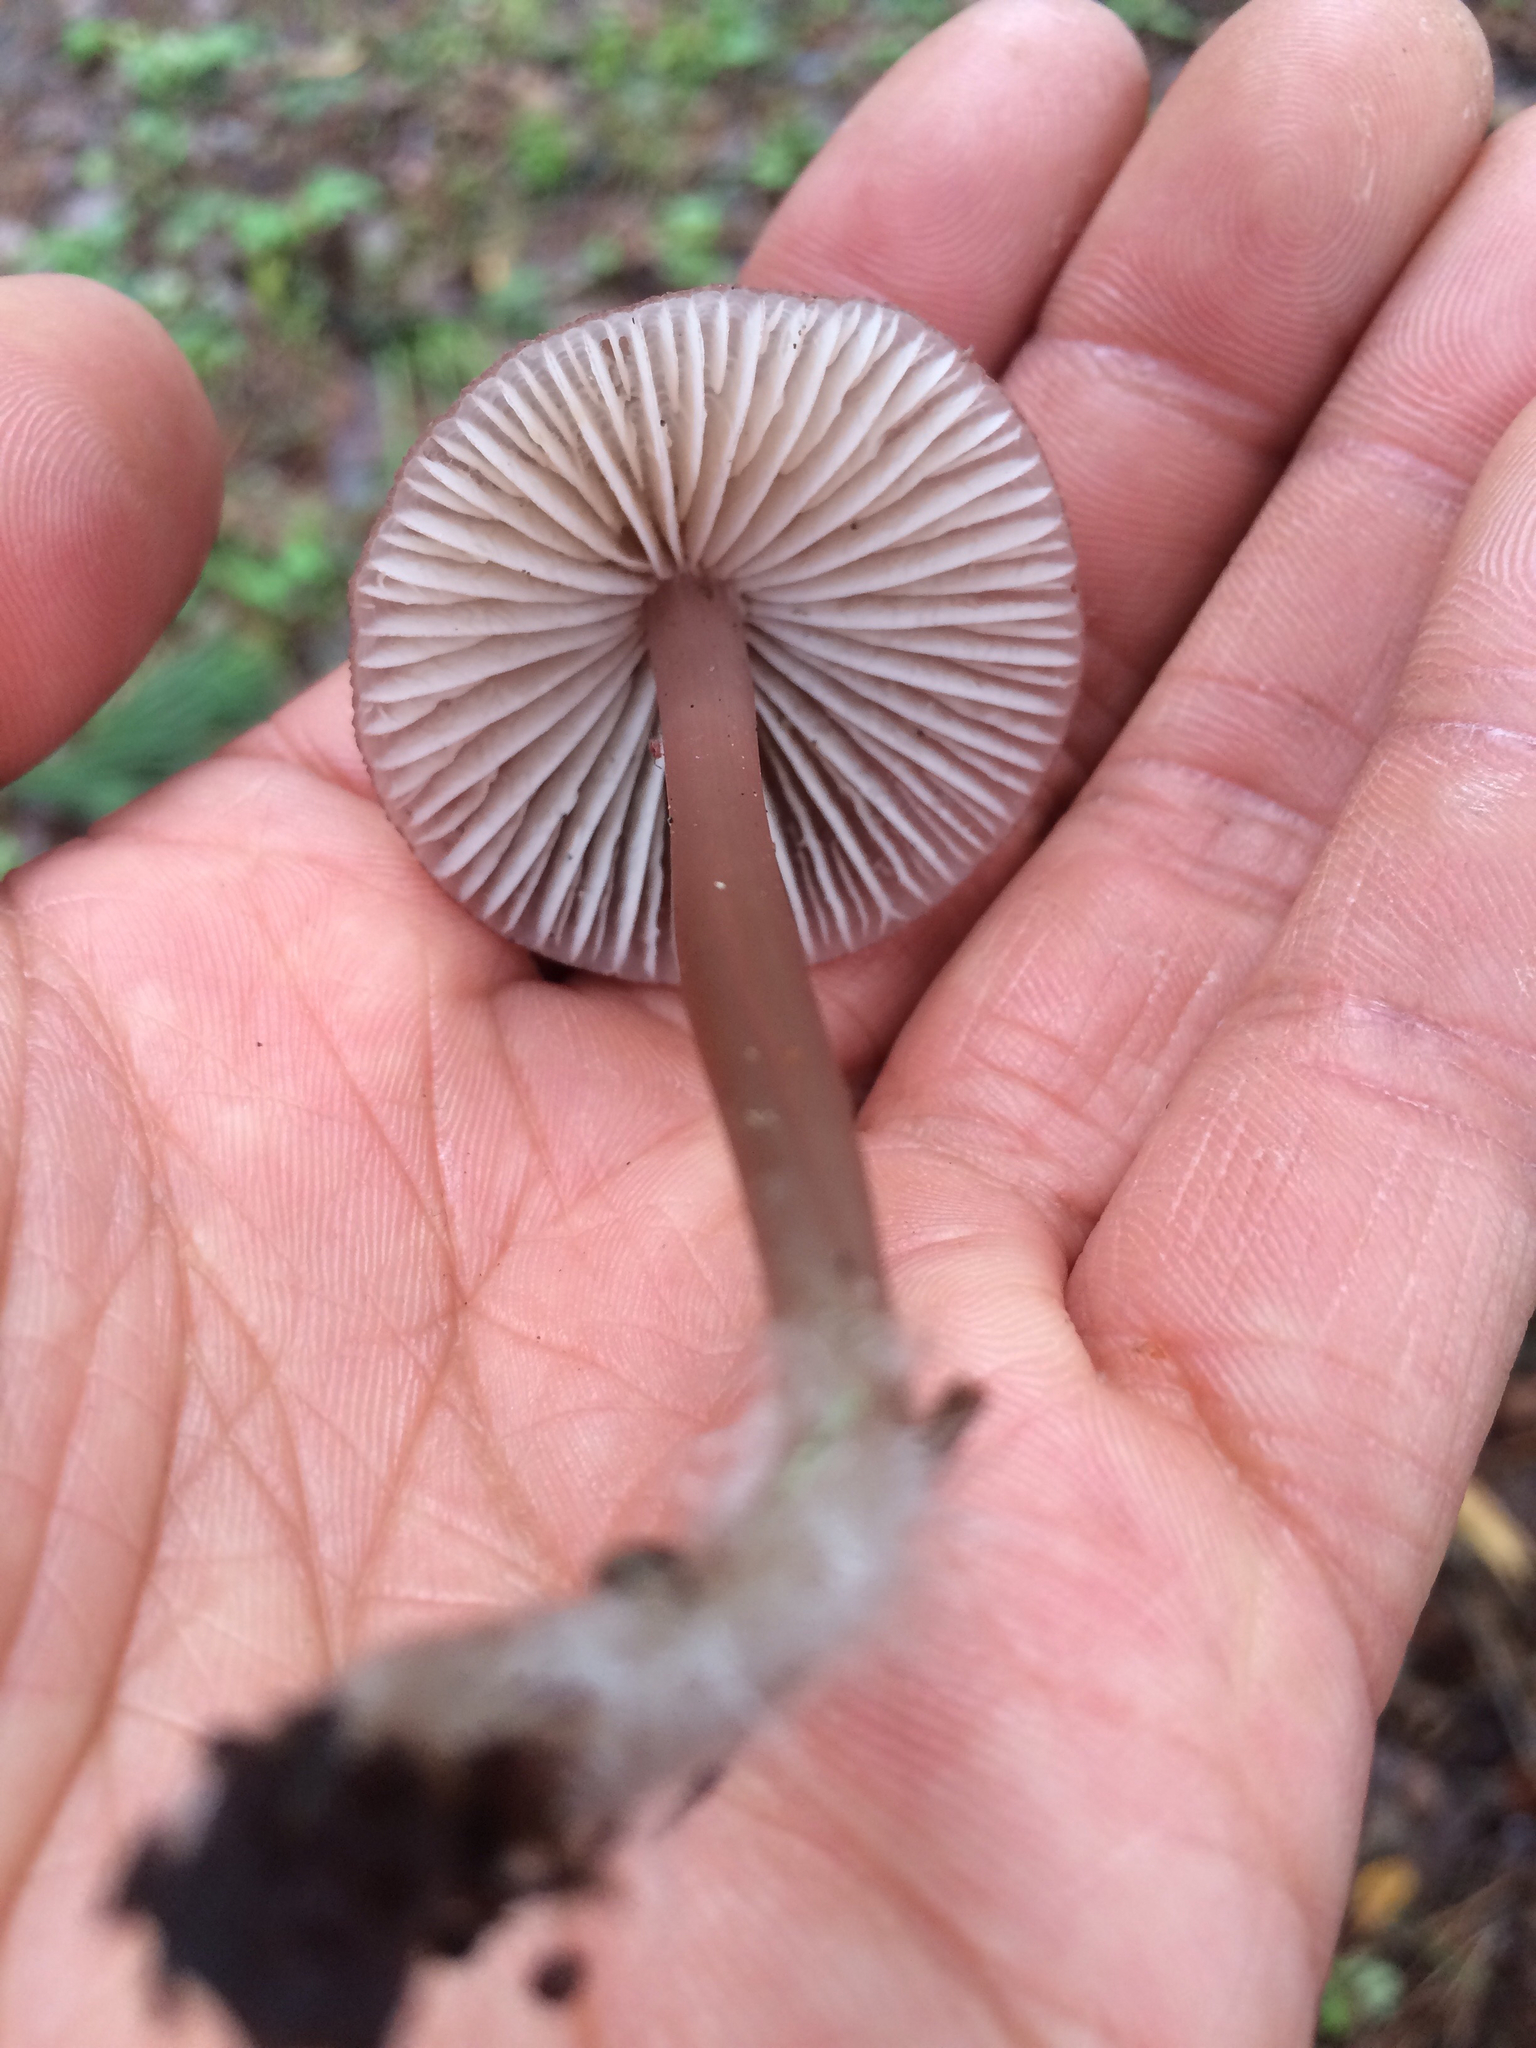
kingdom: Fungi
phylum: Basidiomycota
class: Agaricomycetes
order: Agaricales
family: Mycenaceae
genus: Mycena
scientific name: Mycena purpureofusca
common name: Purple edge bonnet
